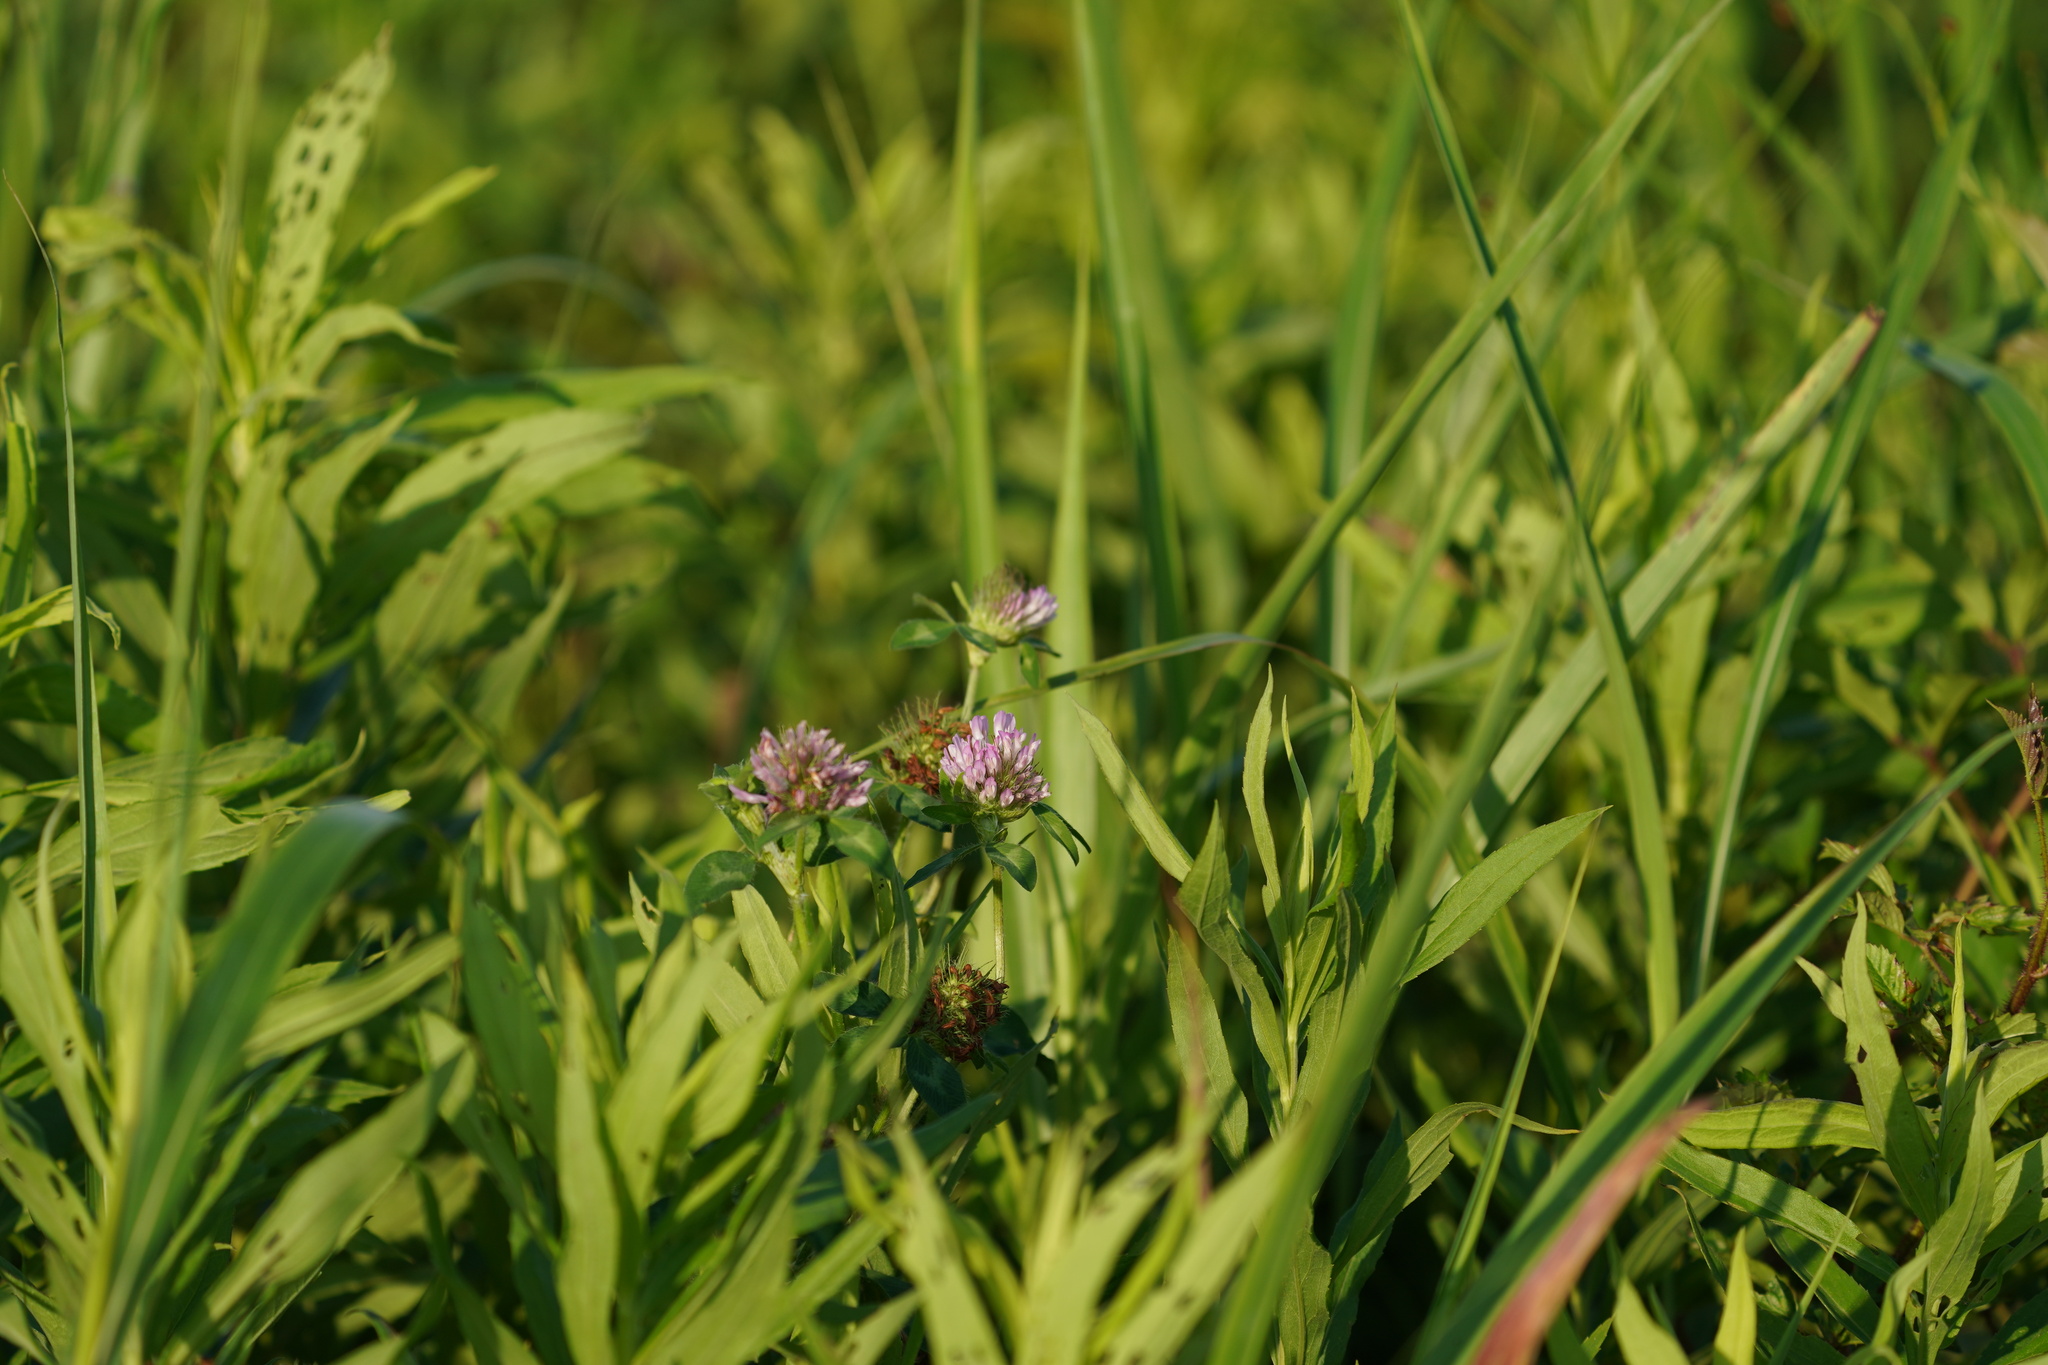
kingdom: Plantae
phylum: Tracheophyta
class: Magnoliopsida
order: Fabales
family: Fabaceae
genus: Trifolium
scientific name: Trifolium pratense
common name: Red clover
